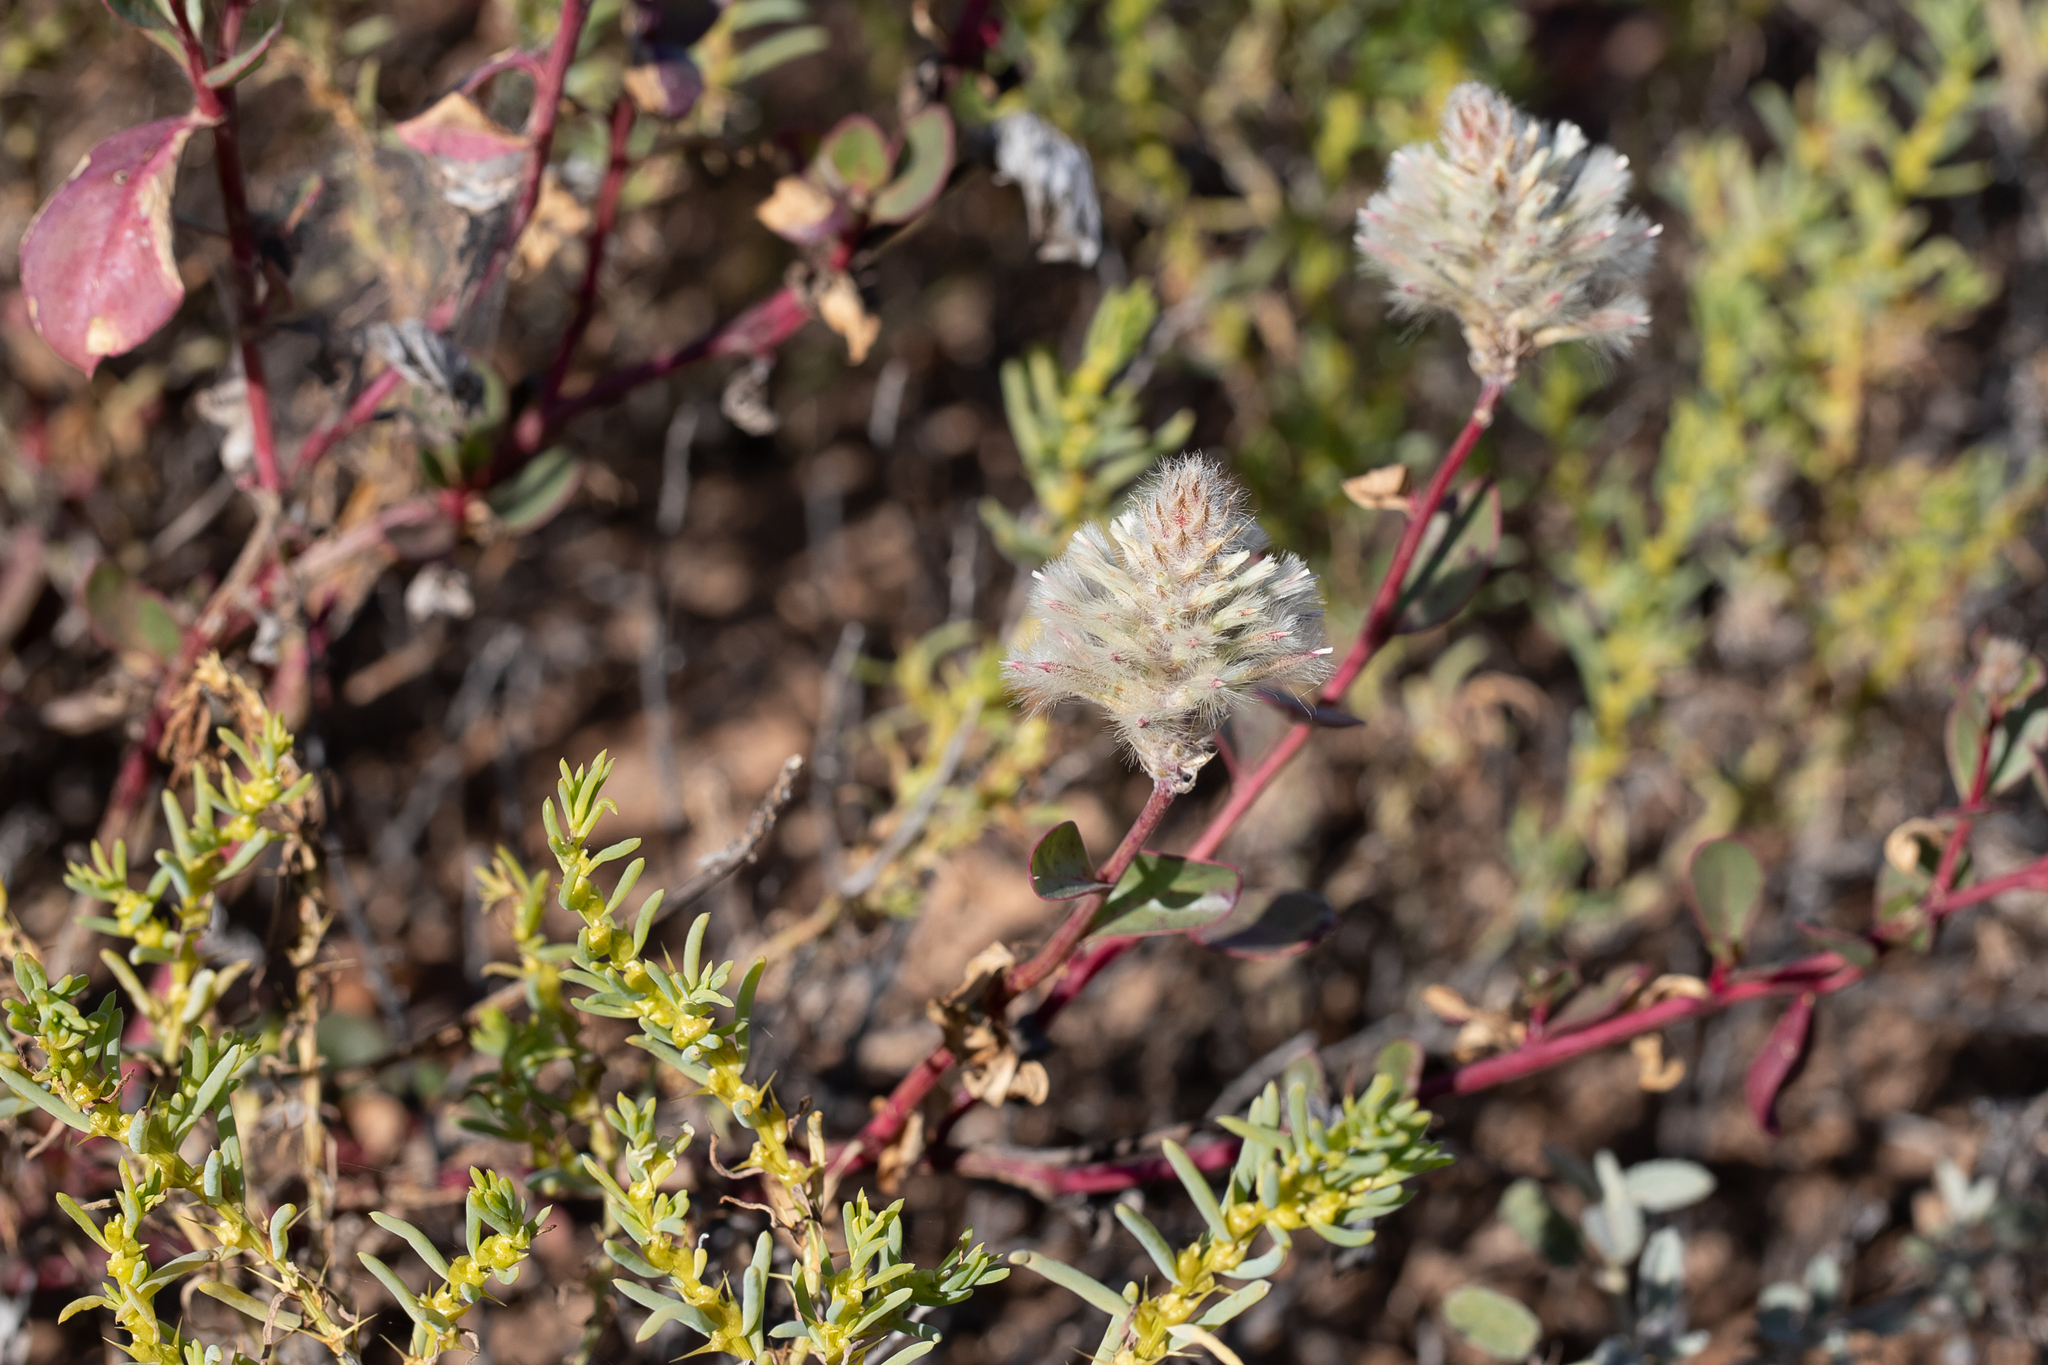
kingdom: Plantae
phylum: Tracheophyta
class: Magnoliopsida
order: Caryophyllales
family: Amaranthaceae
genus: Ptilotus
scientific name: Ptilotus nobilis
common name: Regal-foxtail
